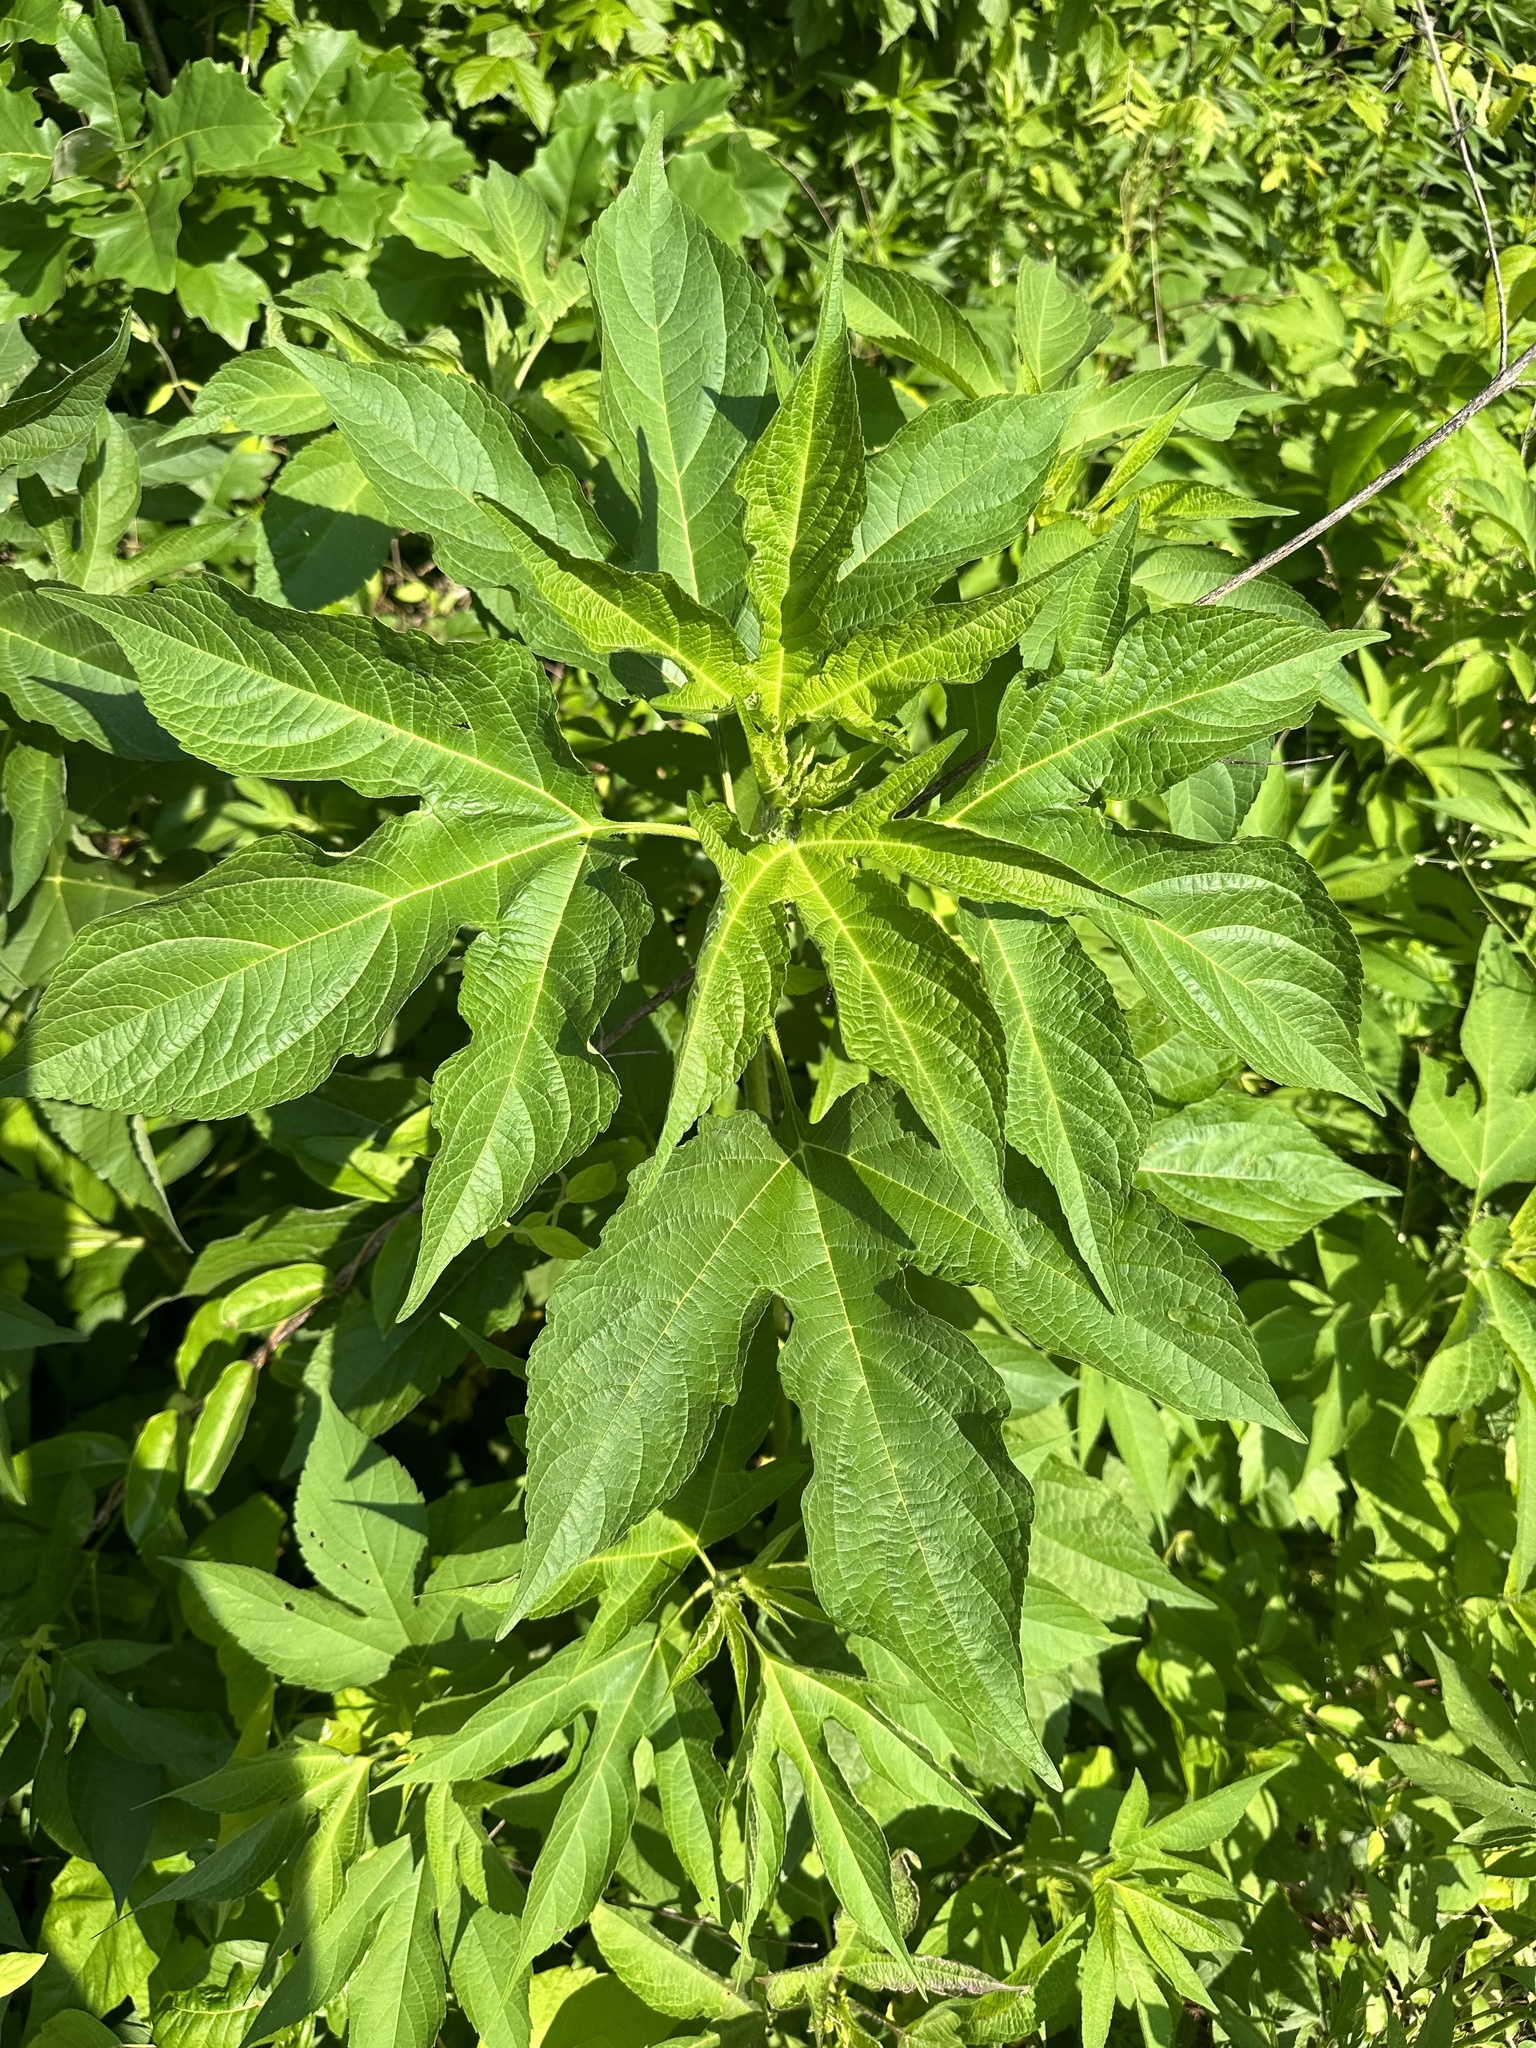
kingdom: Plantae
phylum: Tracheophyta
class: Magnoliopsida
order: Asterales
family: Asteraceae
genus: Ambrosia
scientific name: Ambrosia trifida
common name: Giant ragweed
